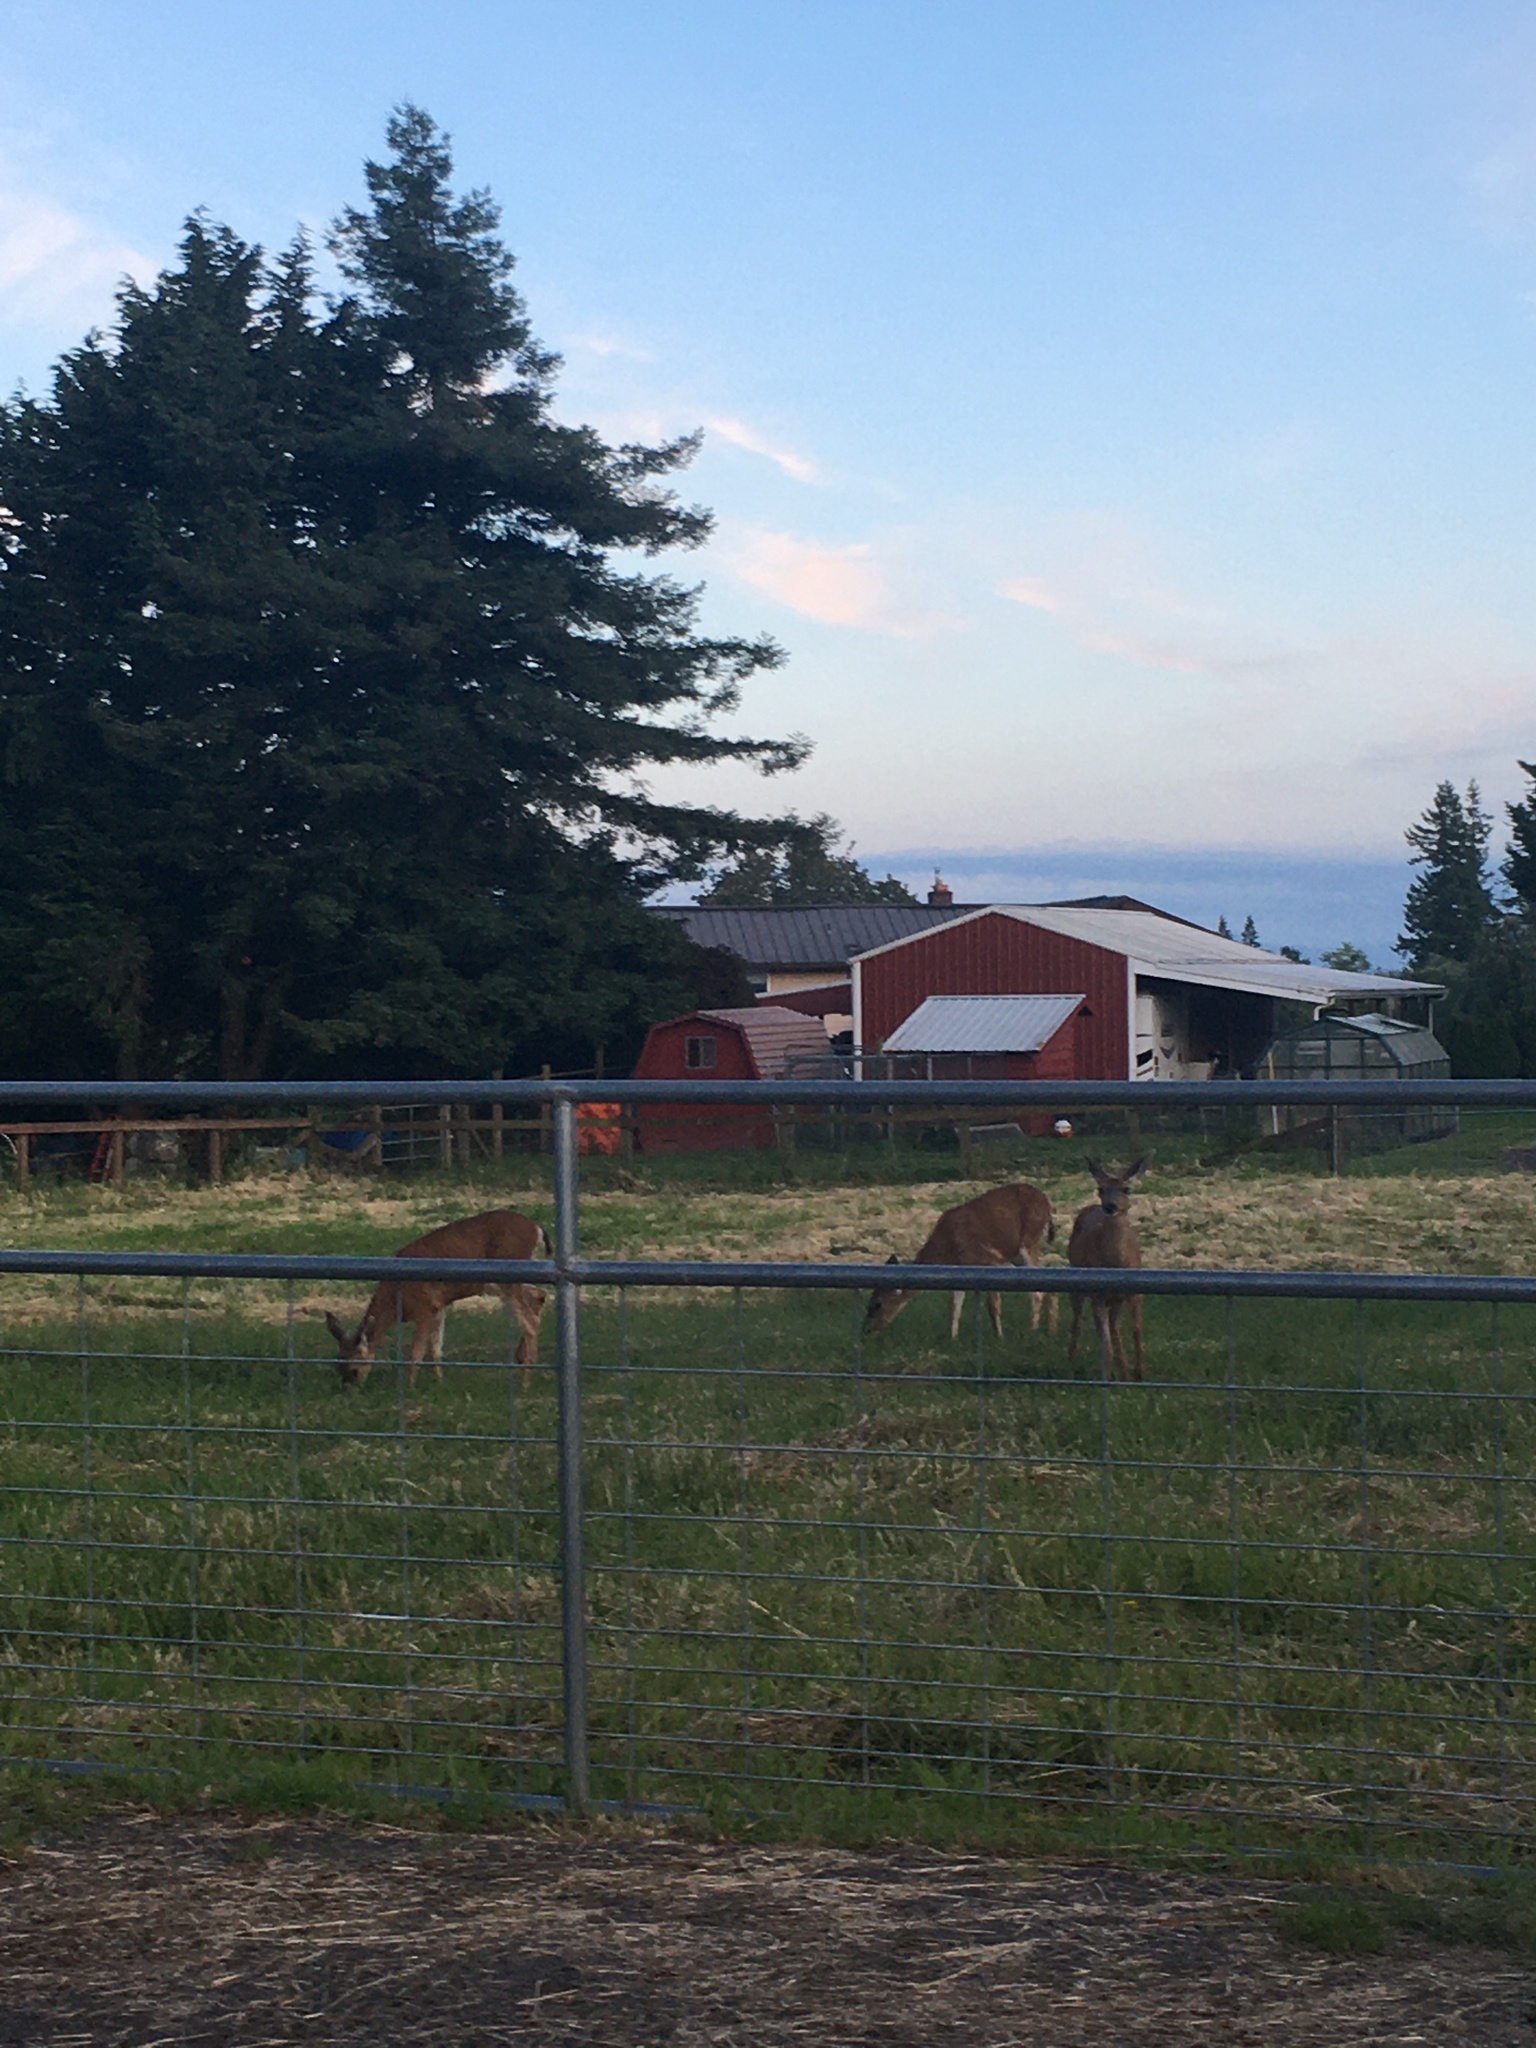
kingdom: Animalia
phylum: Chordata
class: Mammalia
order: Artiodactyla
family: Cervidae
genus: Odocoileus
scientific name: Odocoileus hemionus
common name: Mule deer
